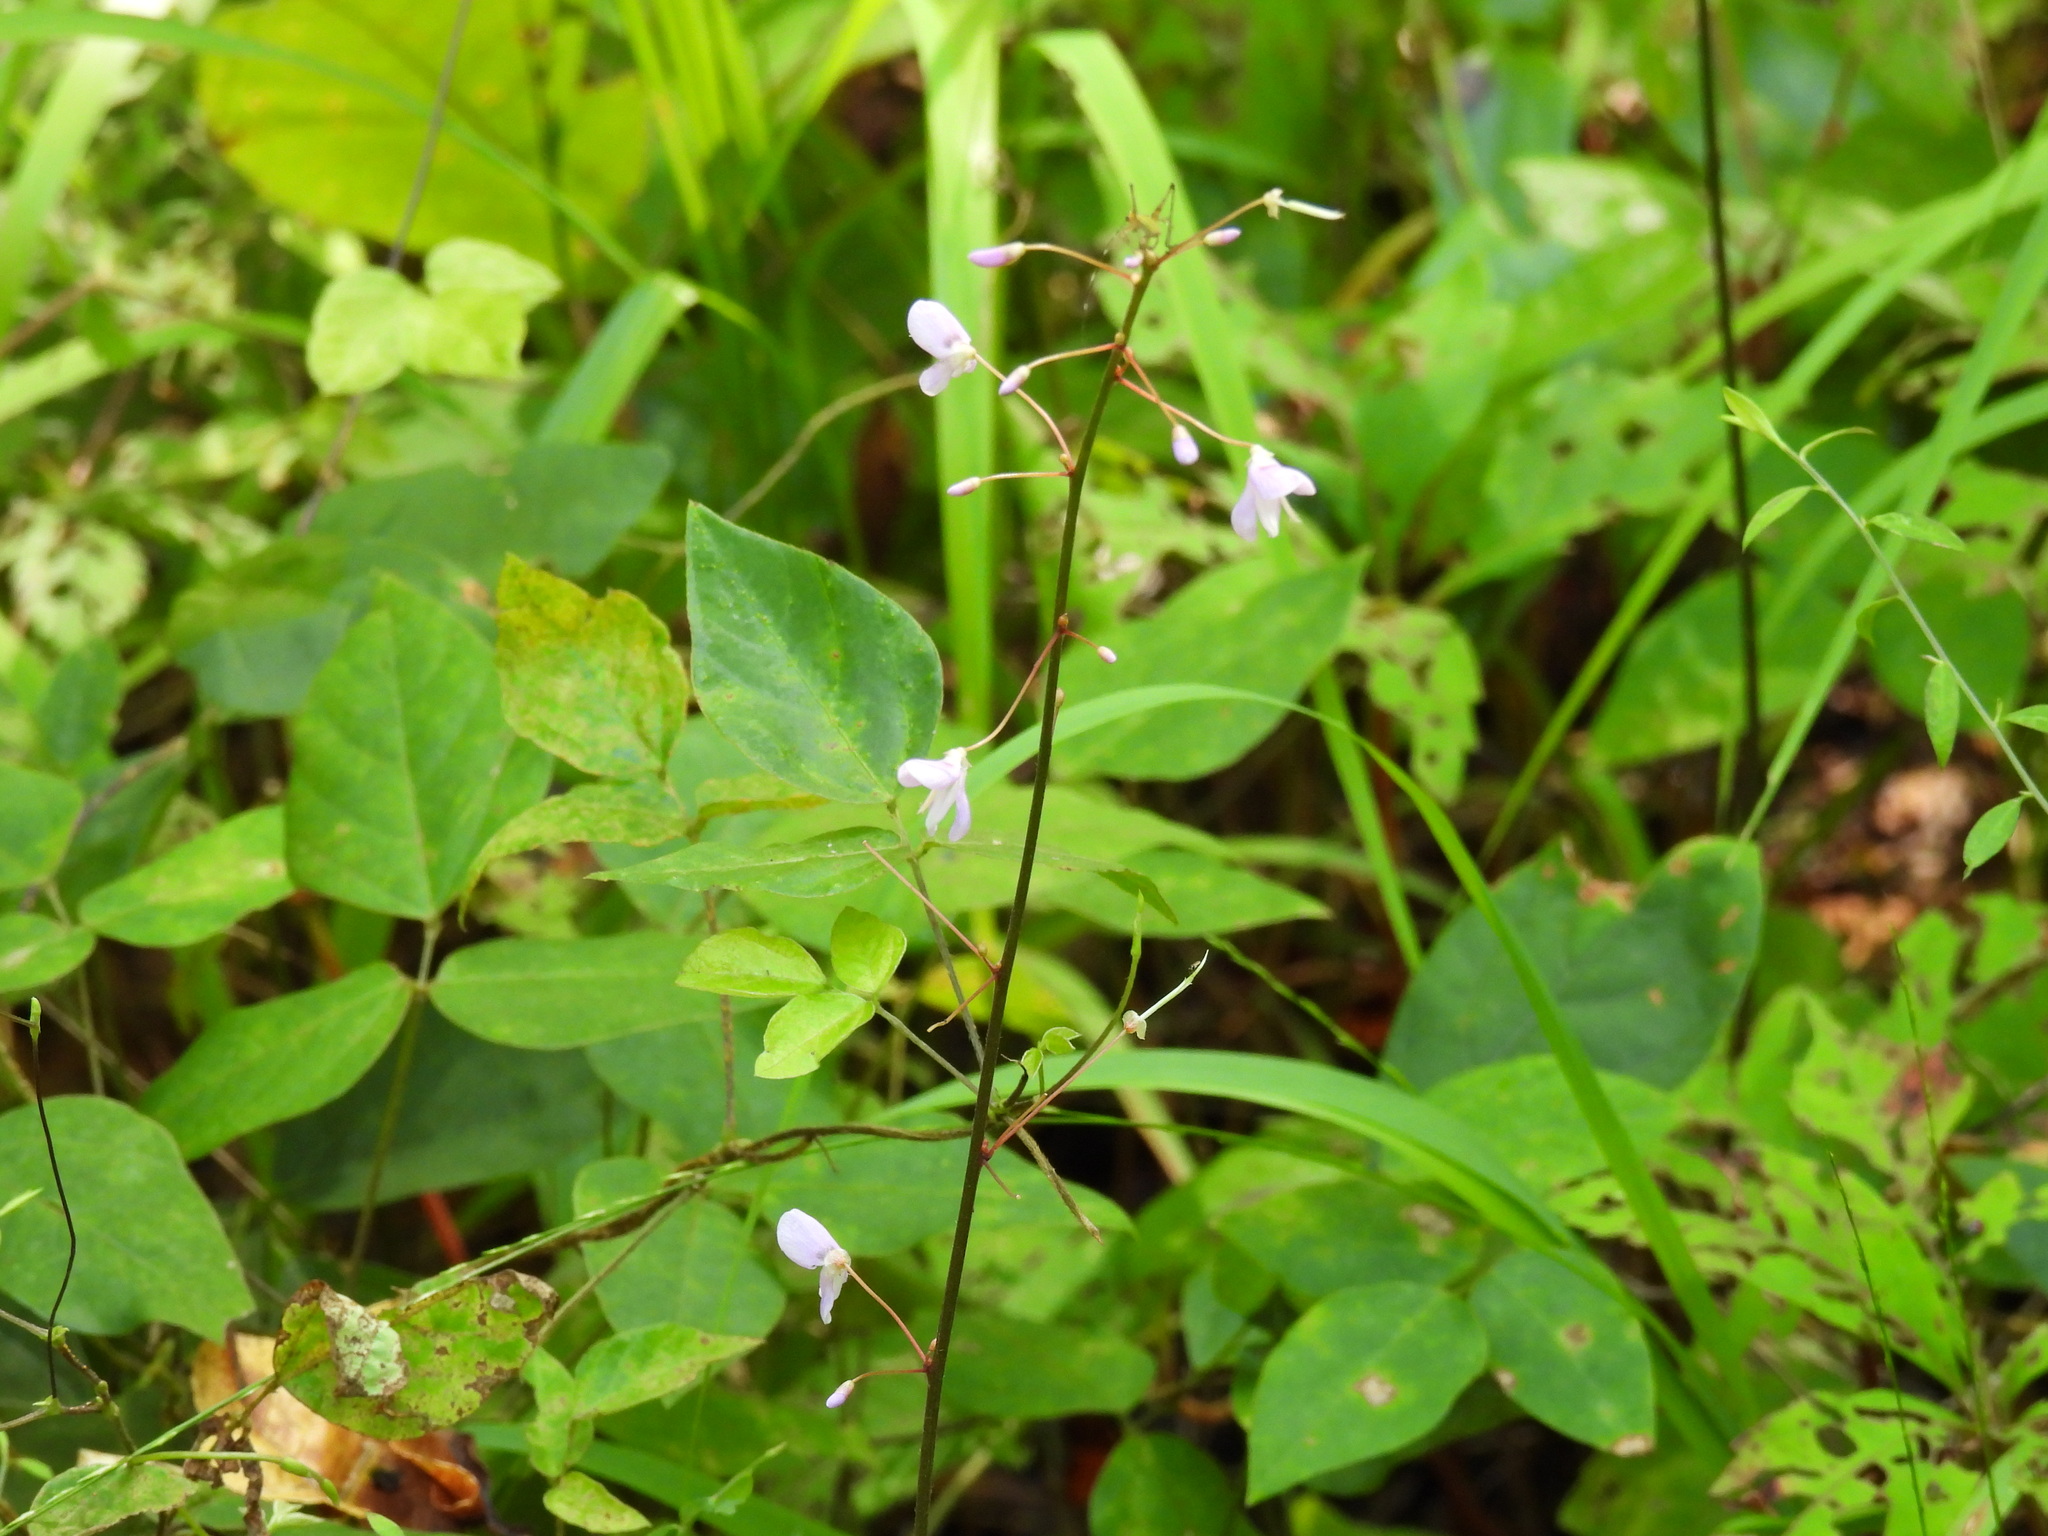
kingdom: Plantae
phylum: Tracheophyta
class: Magnoliopsida
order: Fabales
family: Fabaceae
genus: Hylodesmum
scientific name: Hylodesmum nudiflorum
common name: Bare-stemmed tick-trefoil
